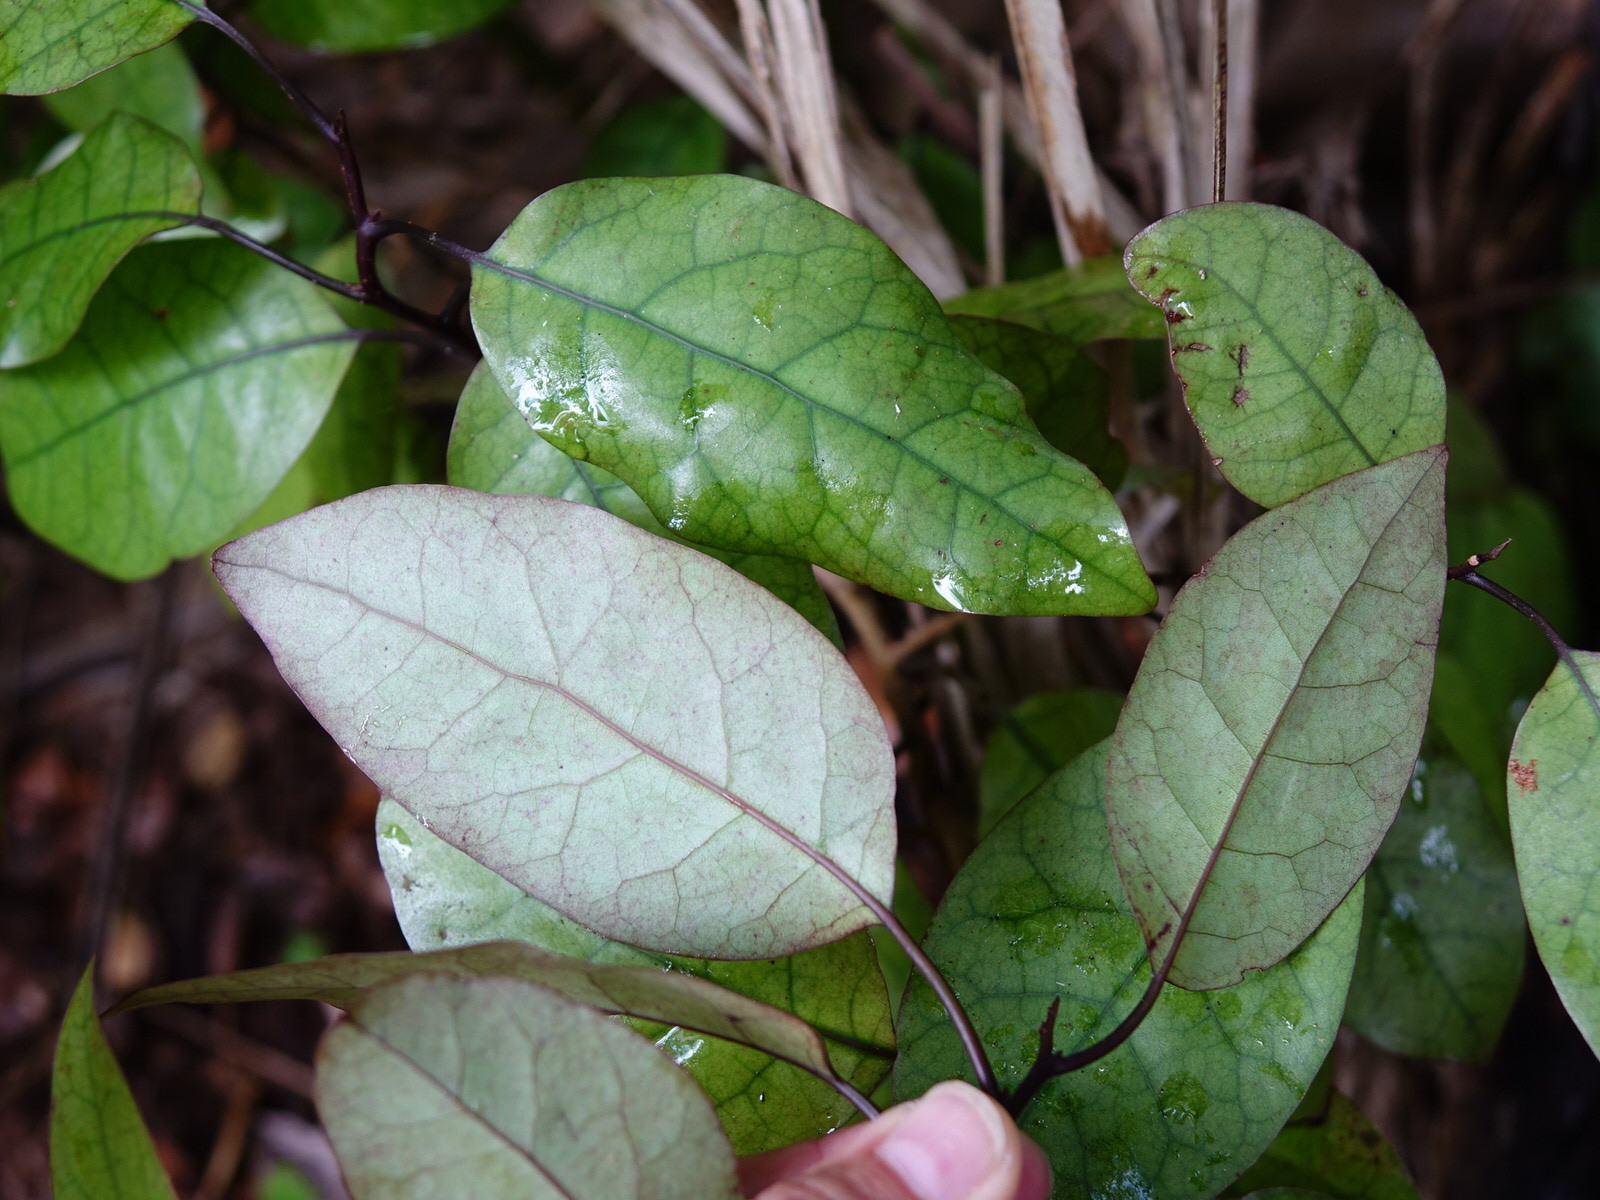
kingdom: Plantae
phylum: Tracheophyta
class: Magnoliopsida
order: Laurales
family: Lauraceae
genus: Litsea
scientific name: Litsea calicaris
